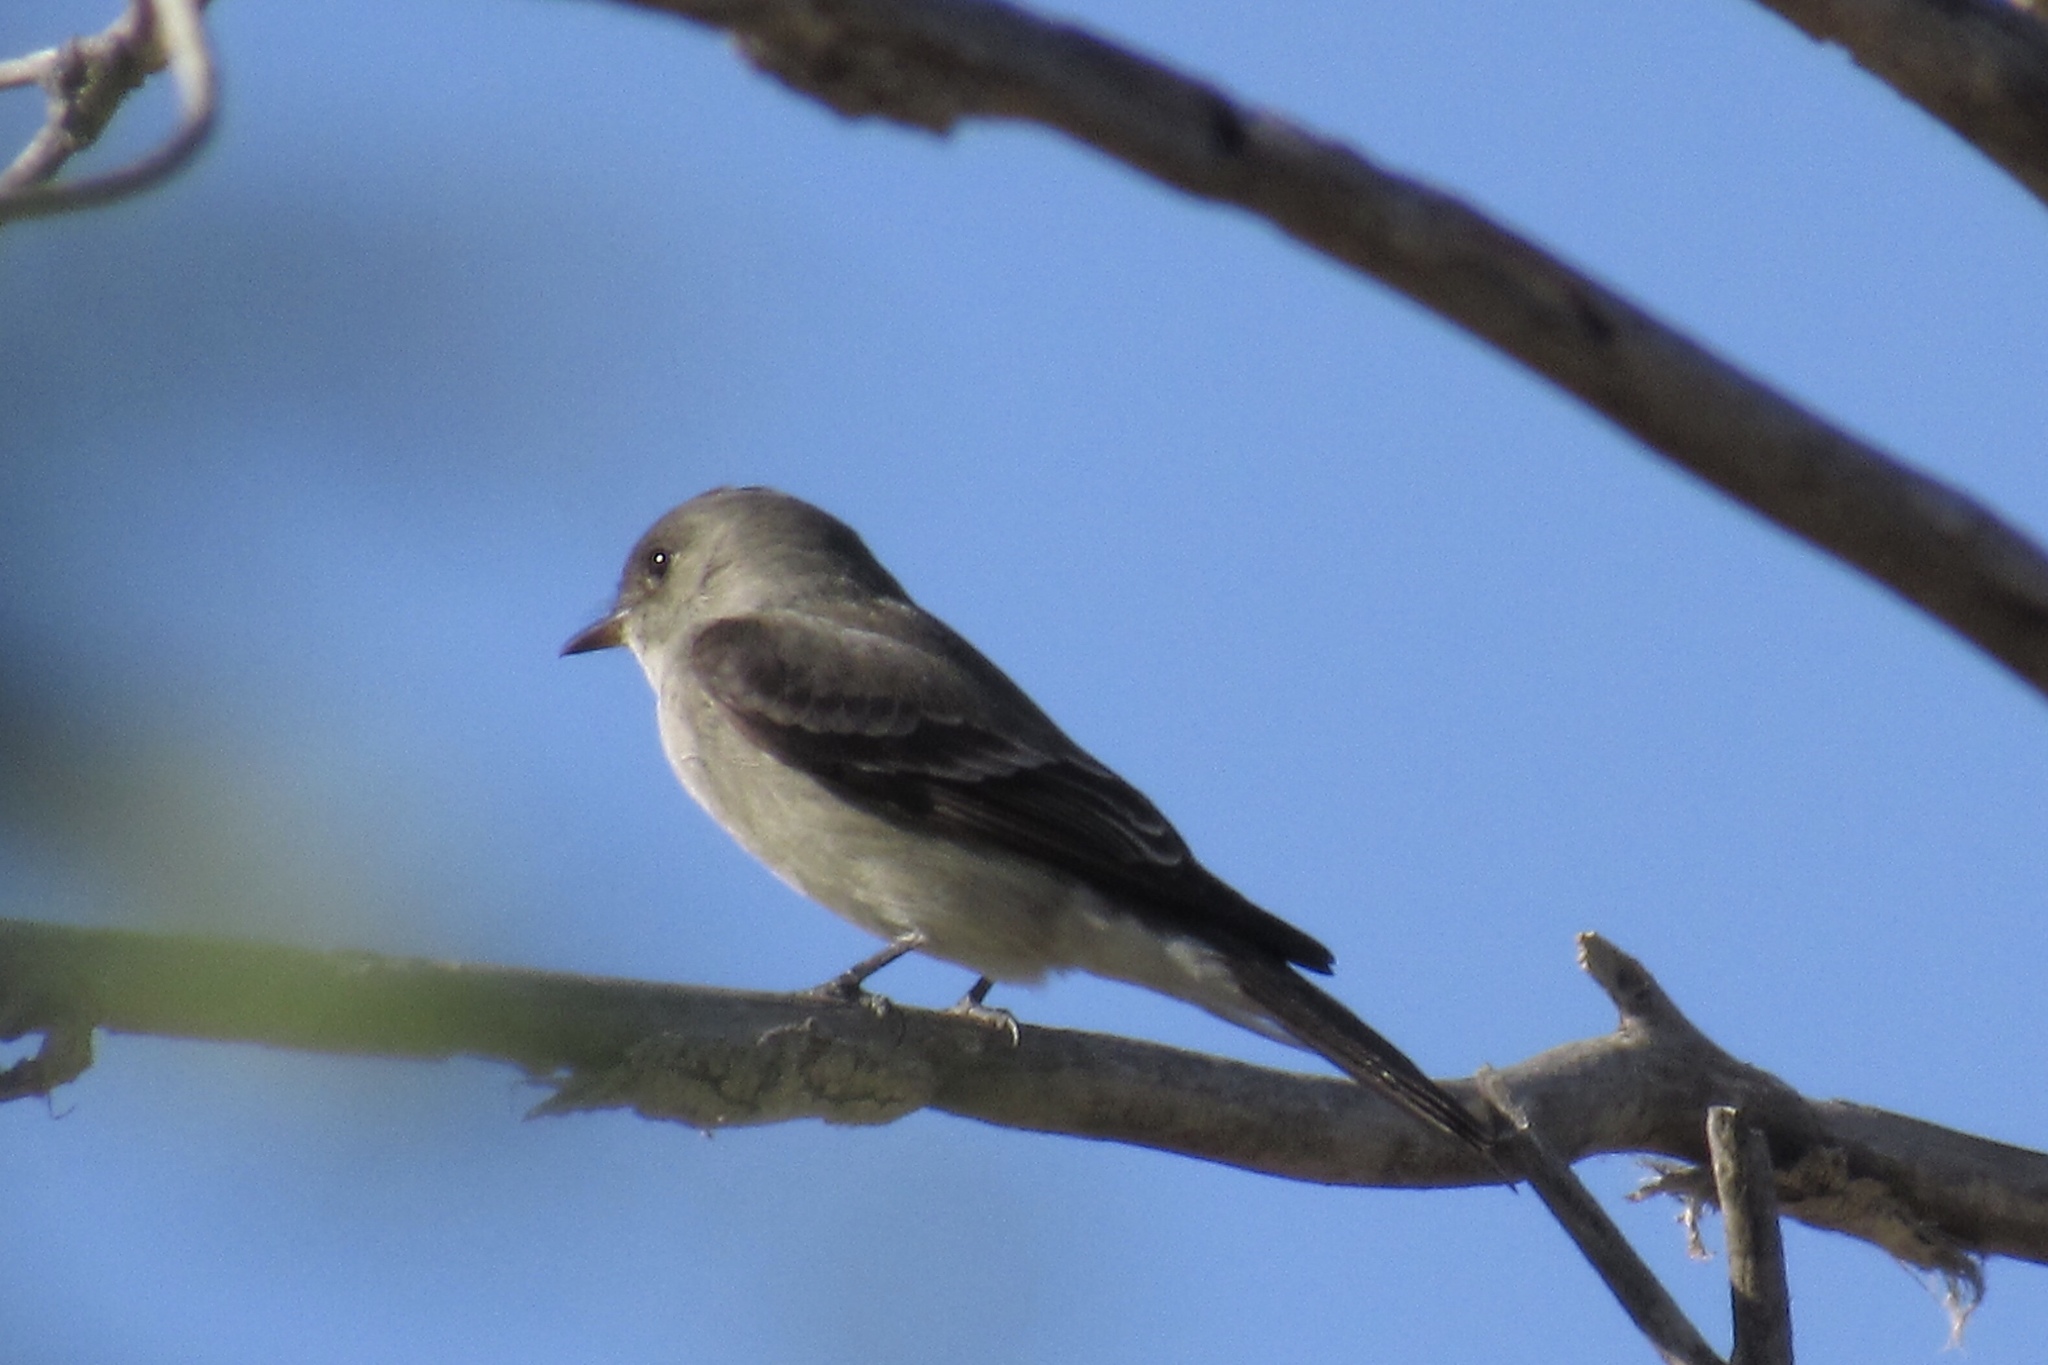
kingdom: Animalia
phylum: Chordata
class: Aves
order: Passeriformes
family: Tyrannidae
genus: Contopus
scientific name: Contopus sordidulus
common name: Western wood-pewee
